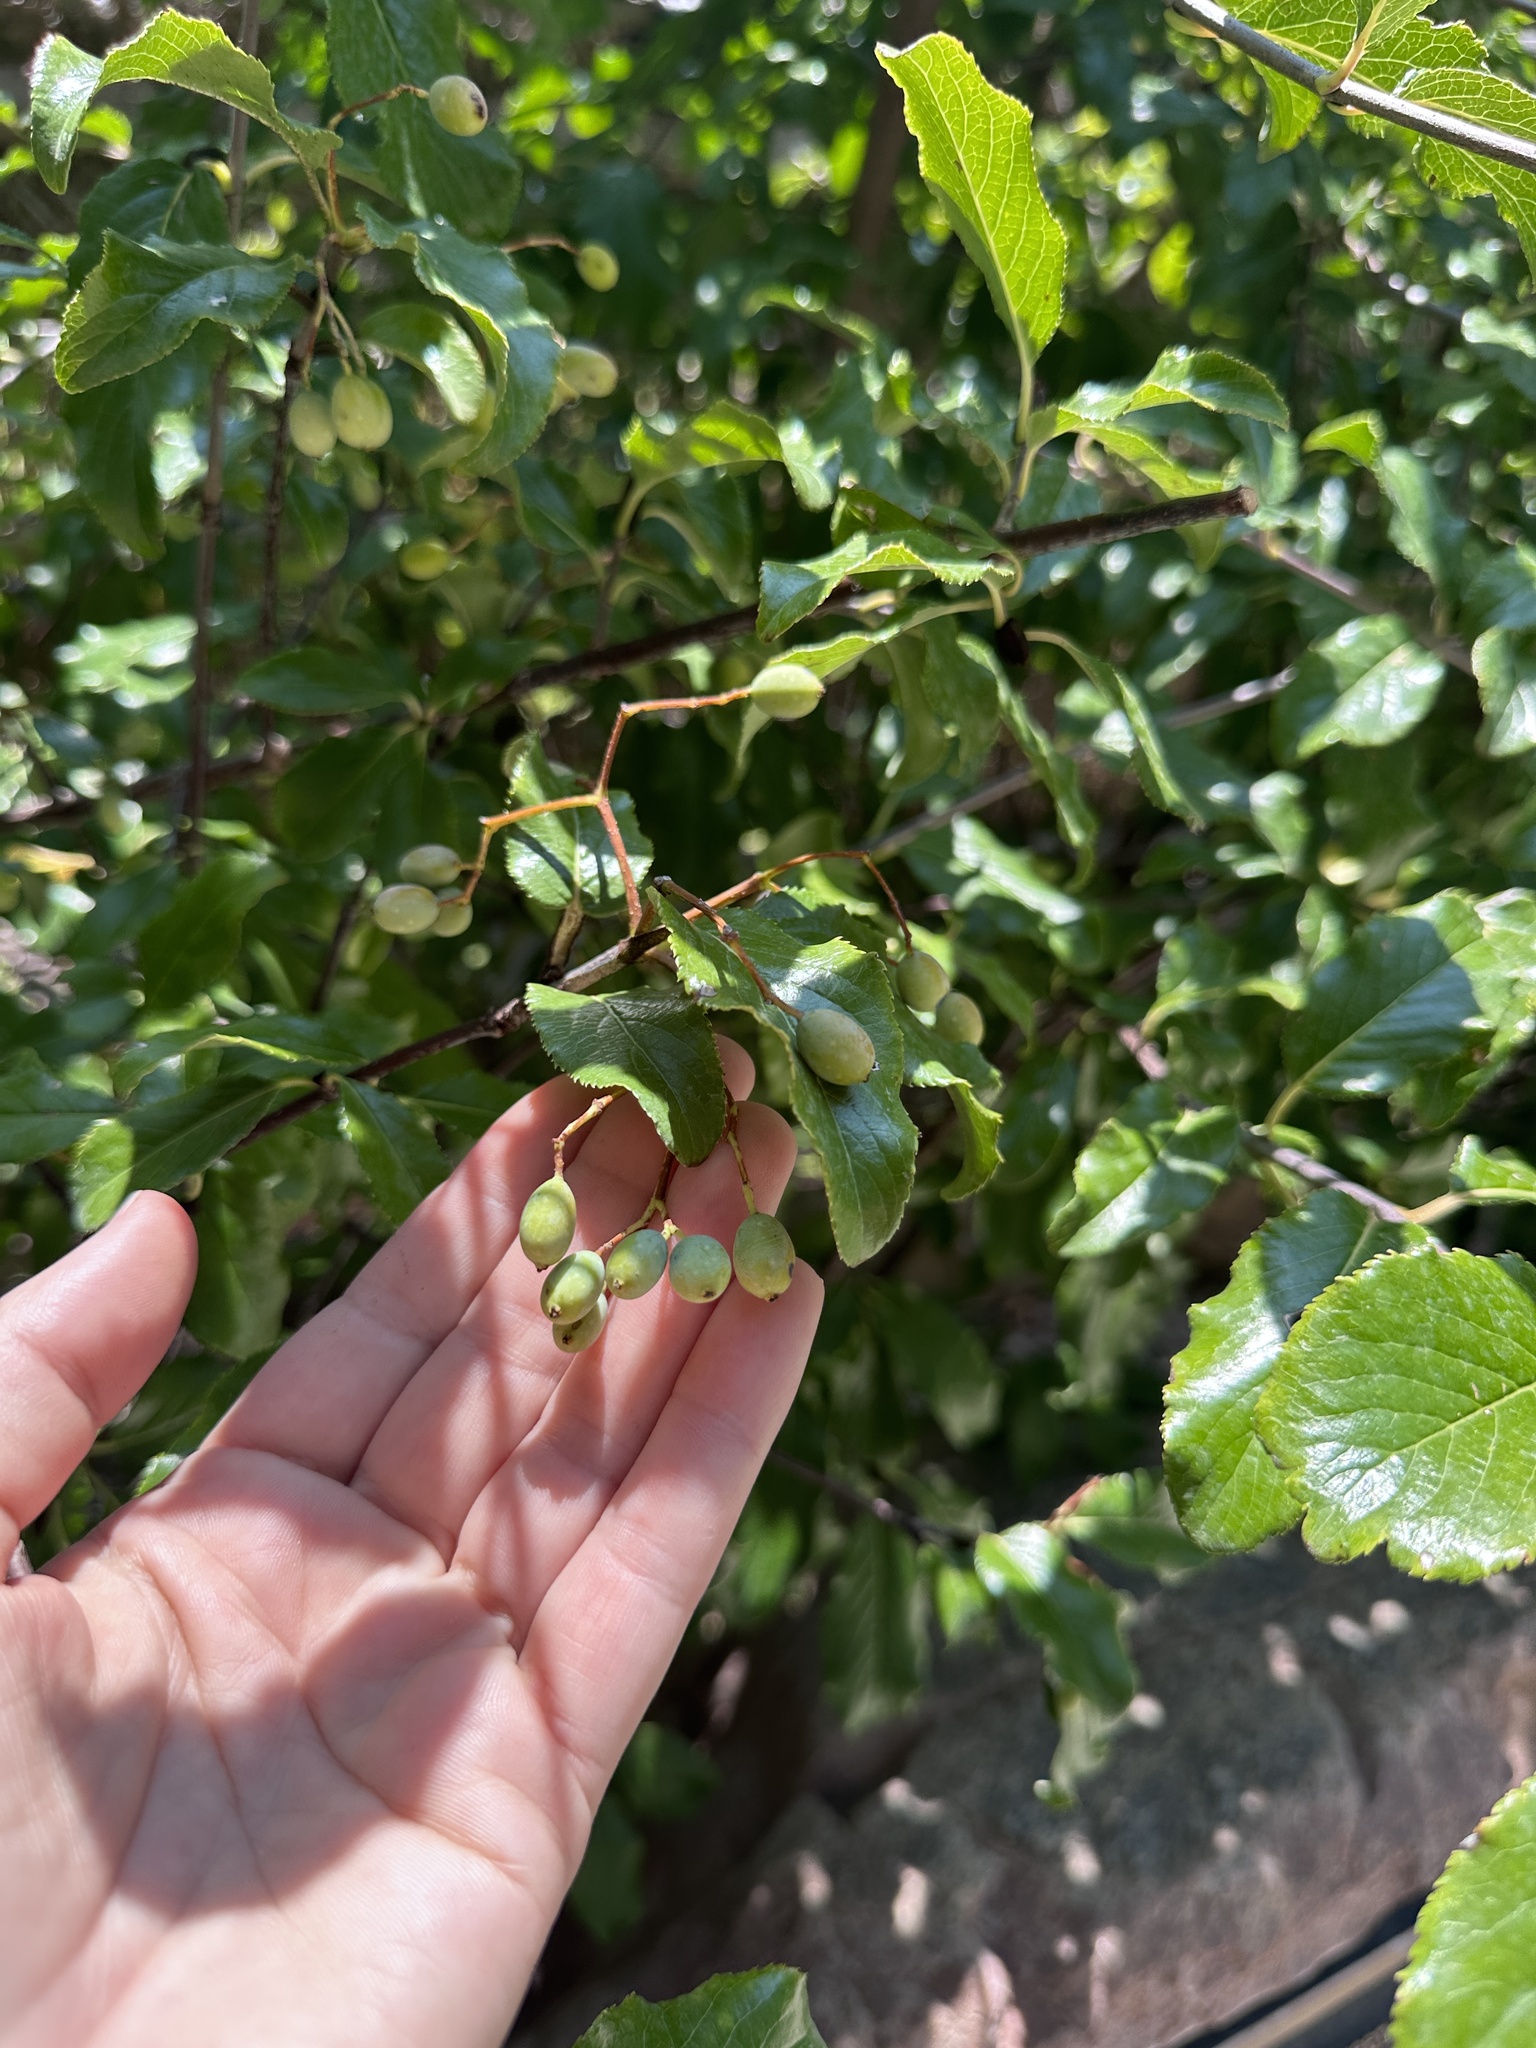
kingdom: Plantae
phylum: Tracheophyta
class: Magnoliopsida
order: Dipsacales
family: Viburnaceae
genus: Viburnum
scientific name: Viburnum rufidulum
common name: Blue haw
